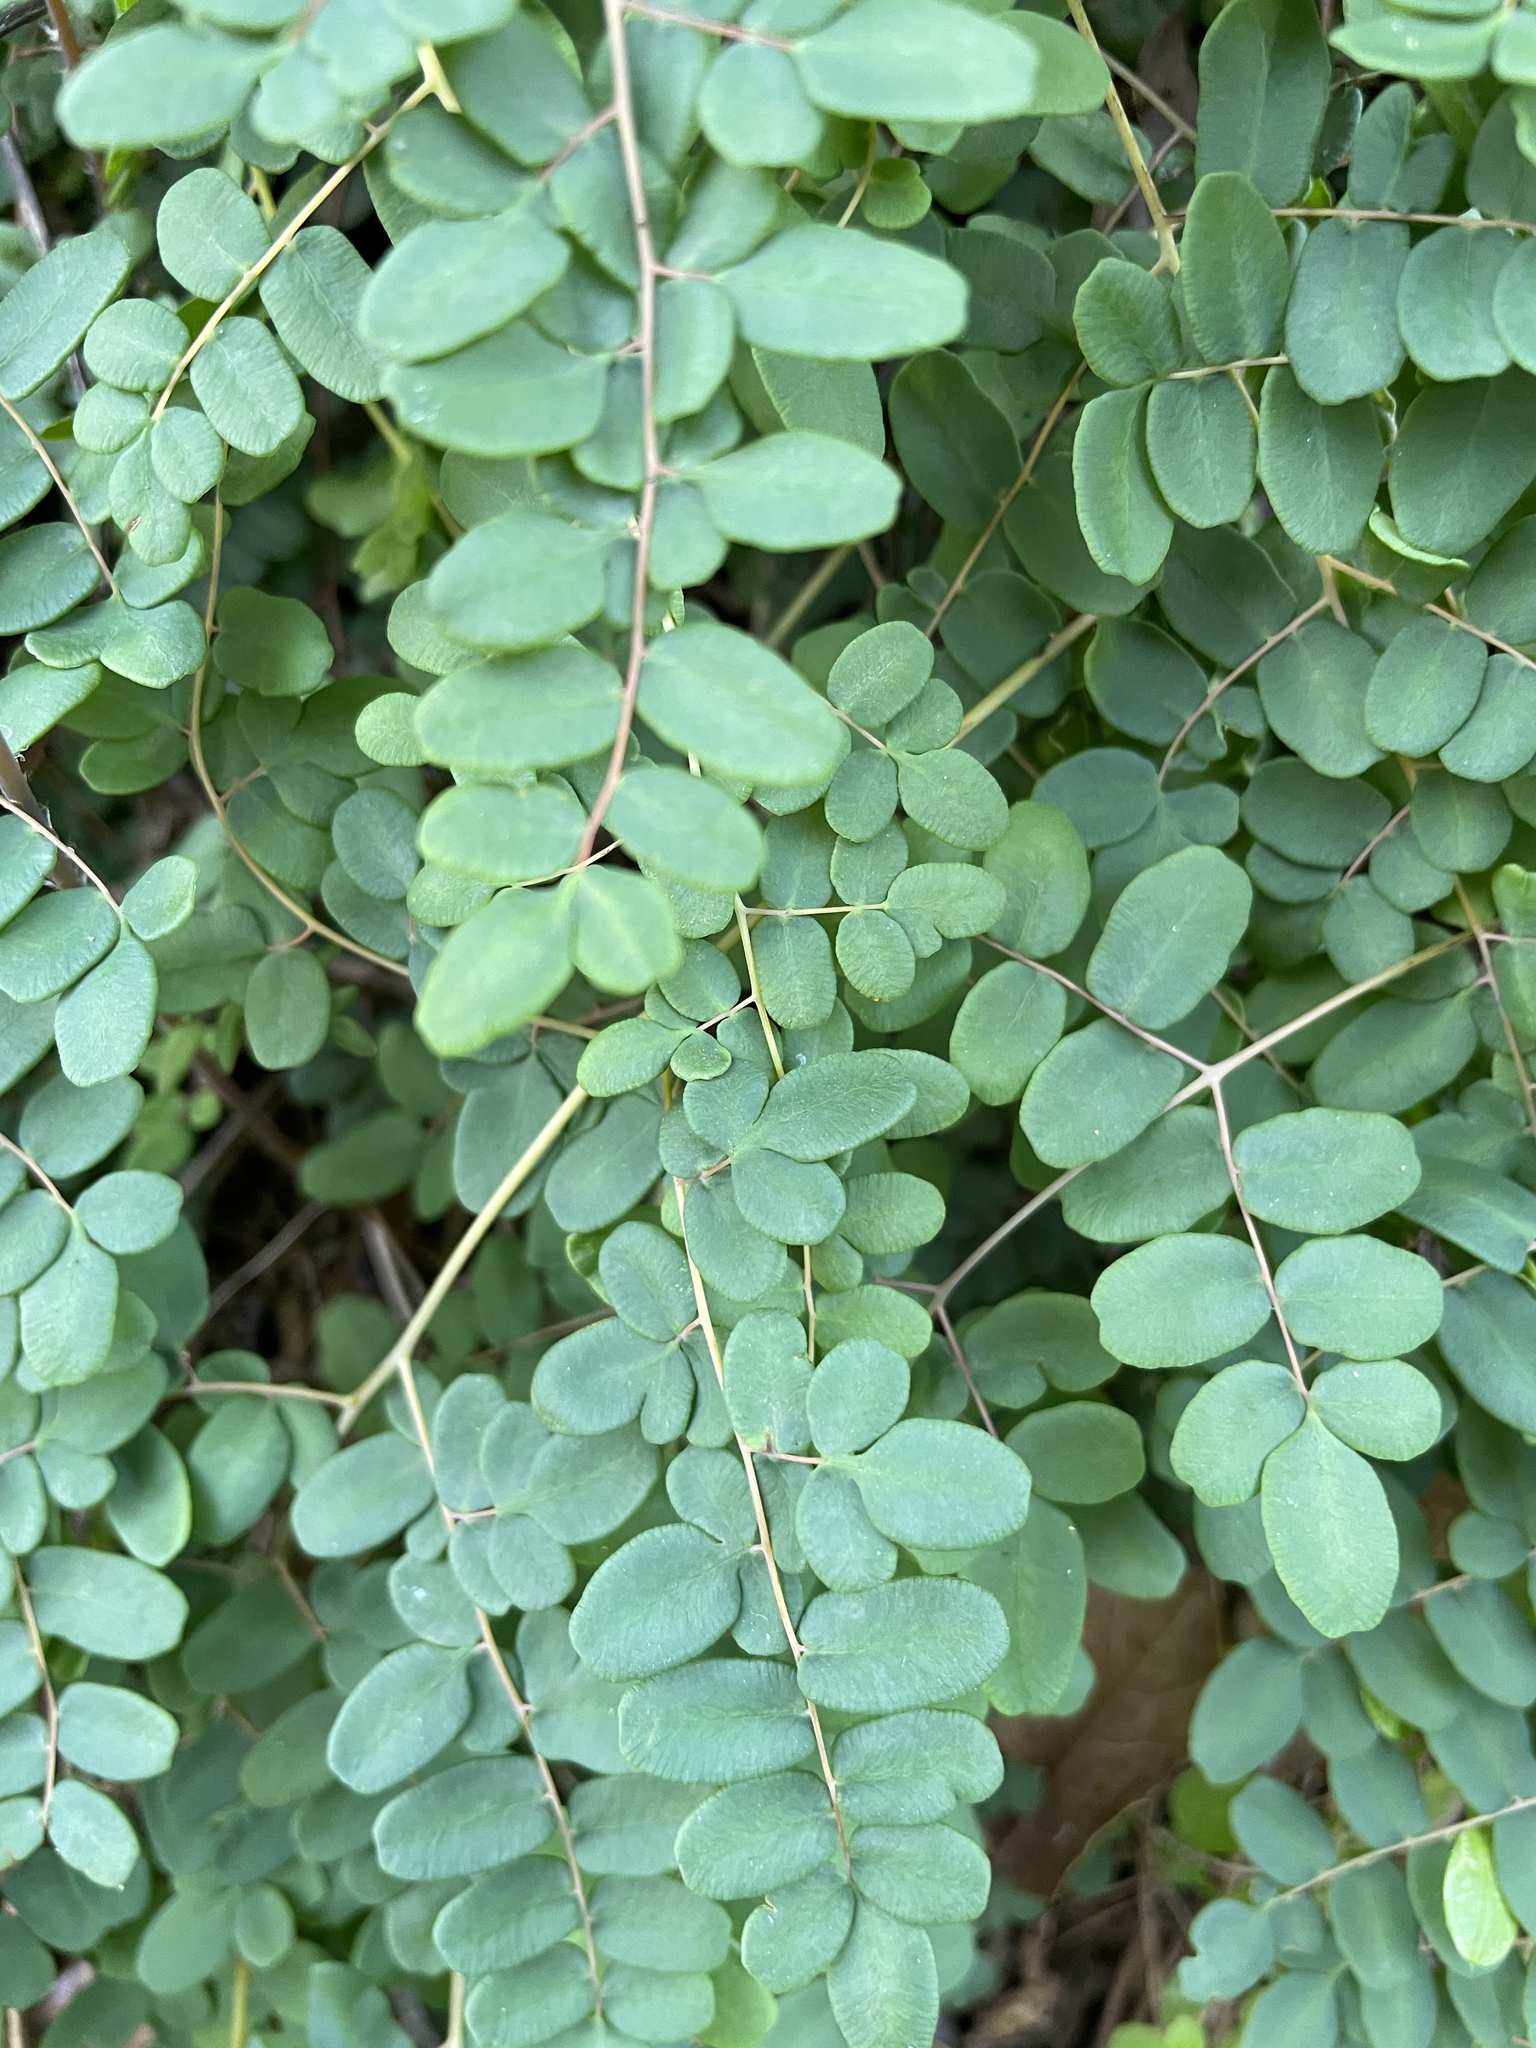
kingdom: Plantae
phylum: Tracheophyta
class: Polypodiopsida
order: Polypodiales
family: Pteridaceae
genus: Pellaea
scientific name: Pellaea andromedifolia
